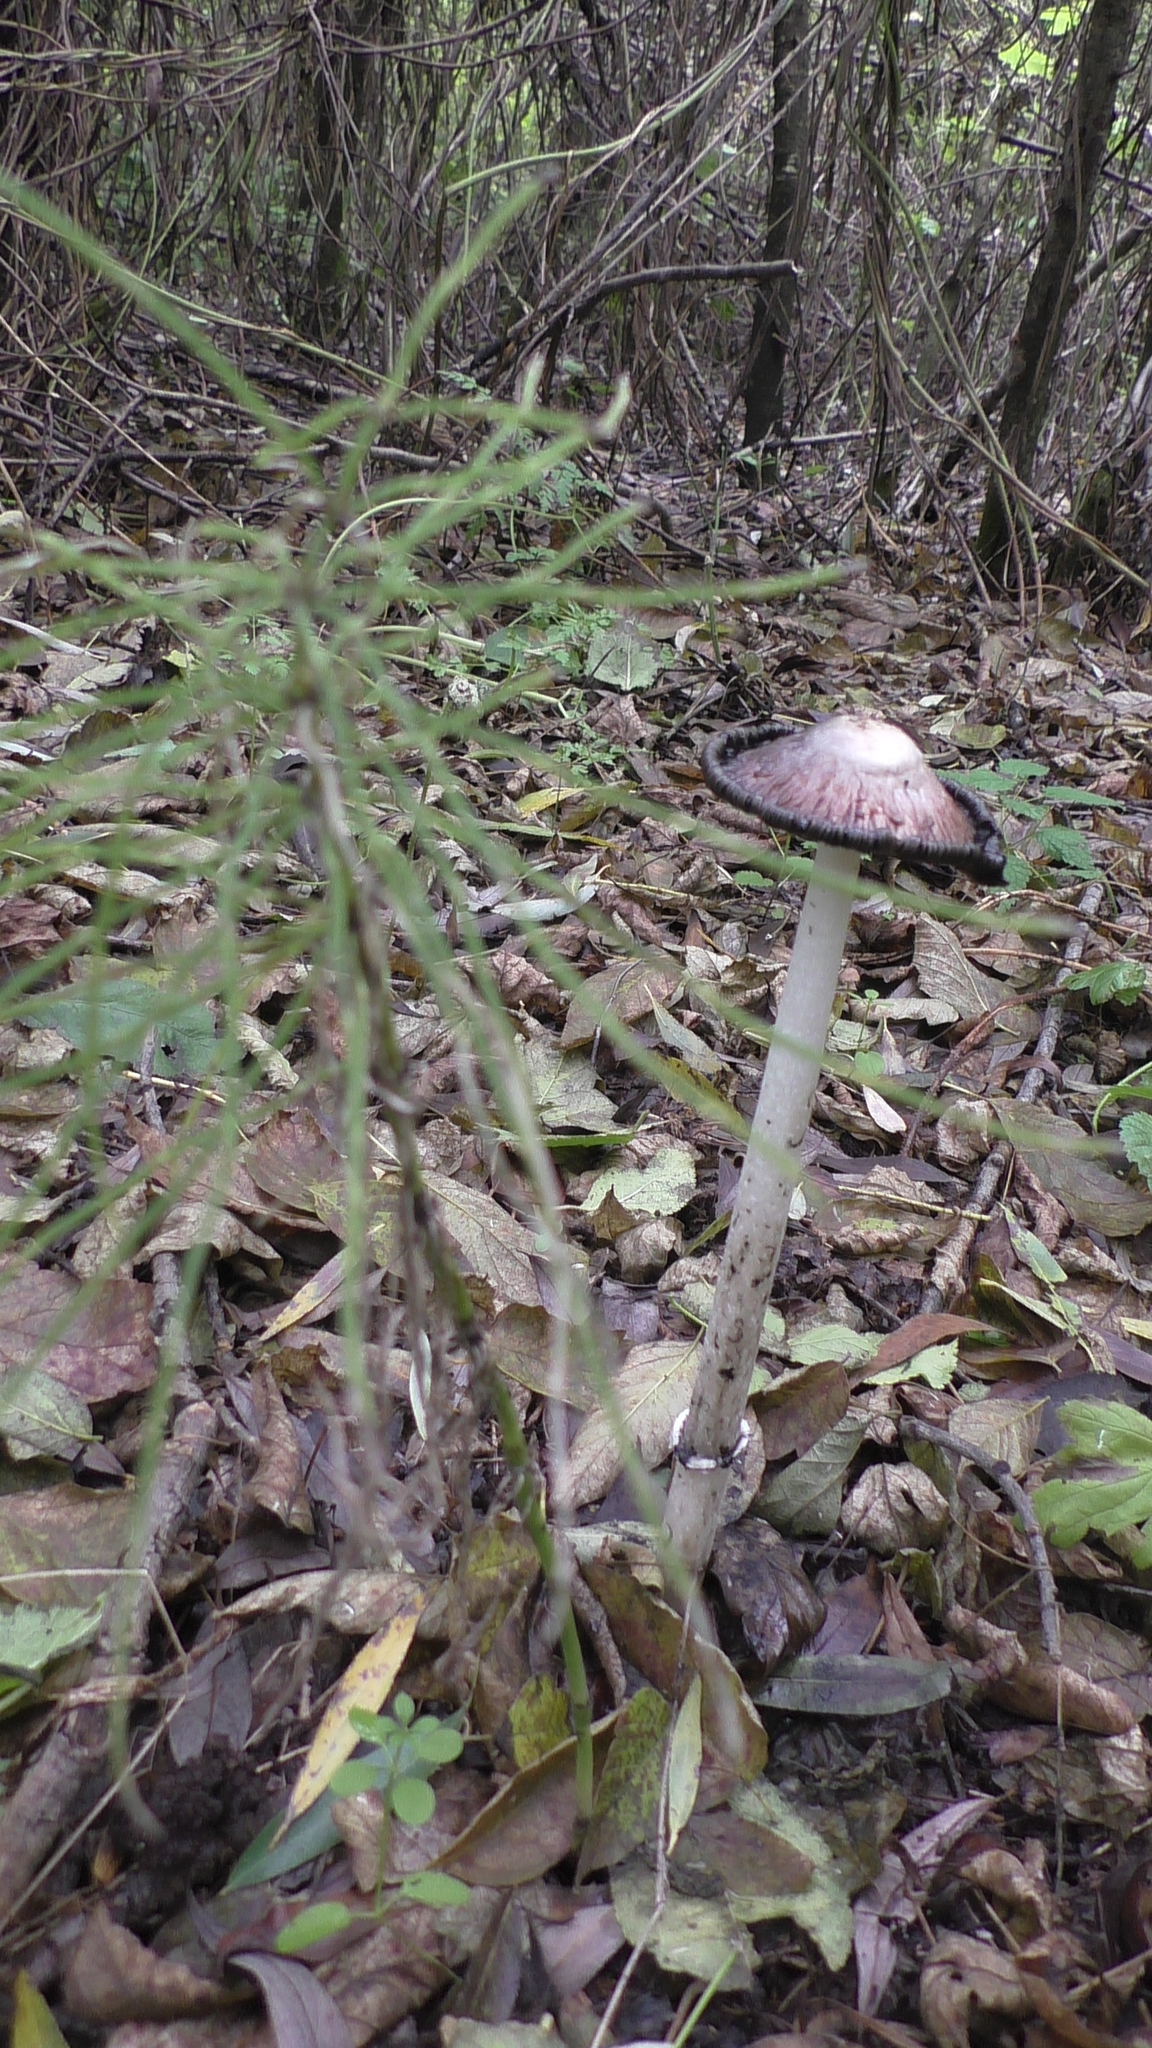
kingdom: Fungi
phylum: Basidiomycota
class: Agaricomycetes
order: Agaricales
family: Agaricaceae
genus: Coprinus
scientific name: Coprinus comatus
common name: Lawyer's wig
